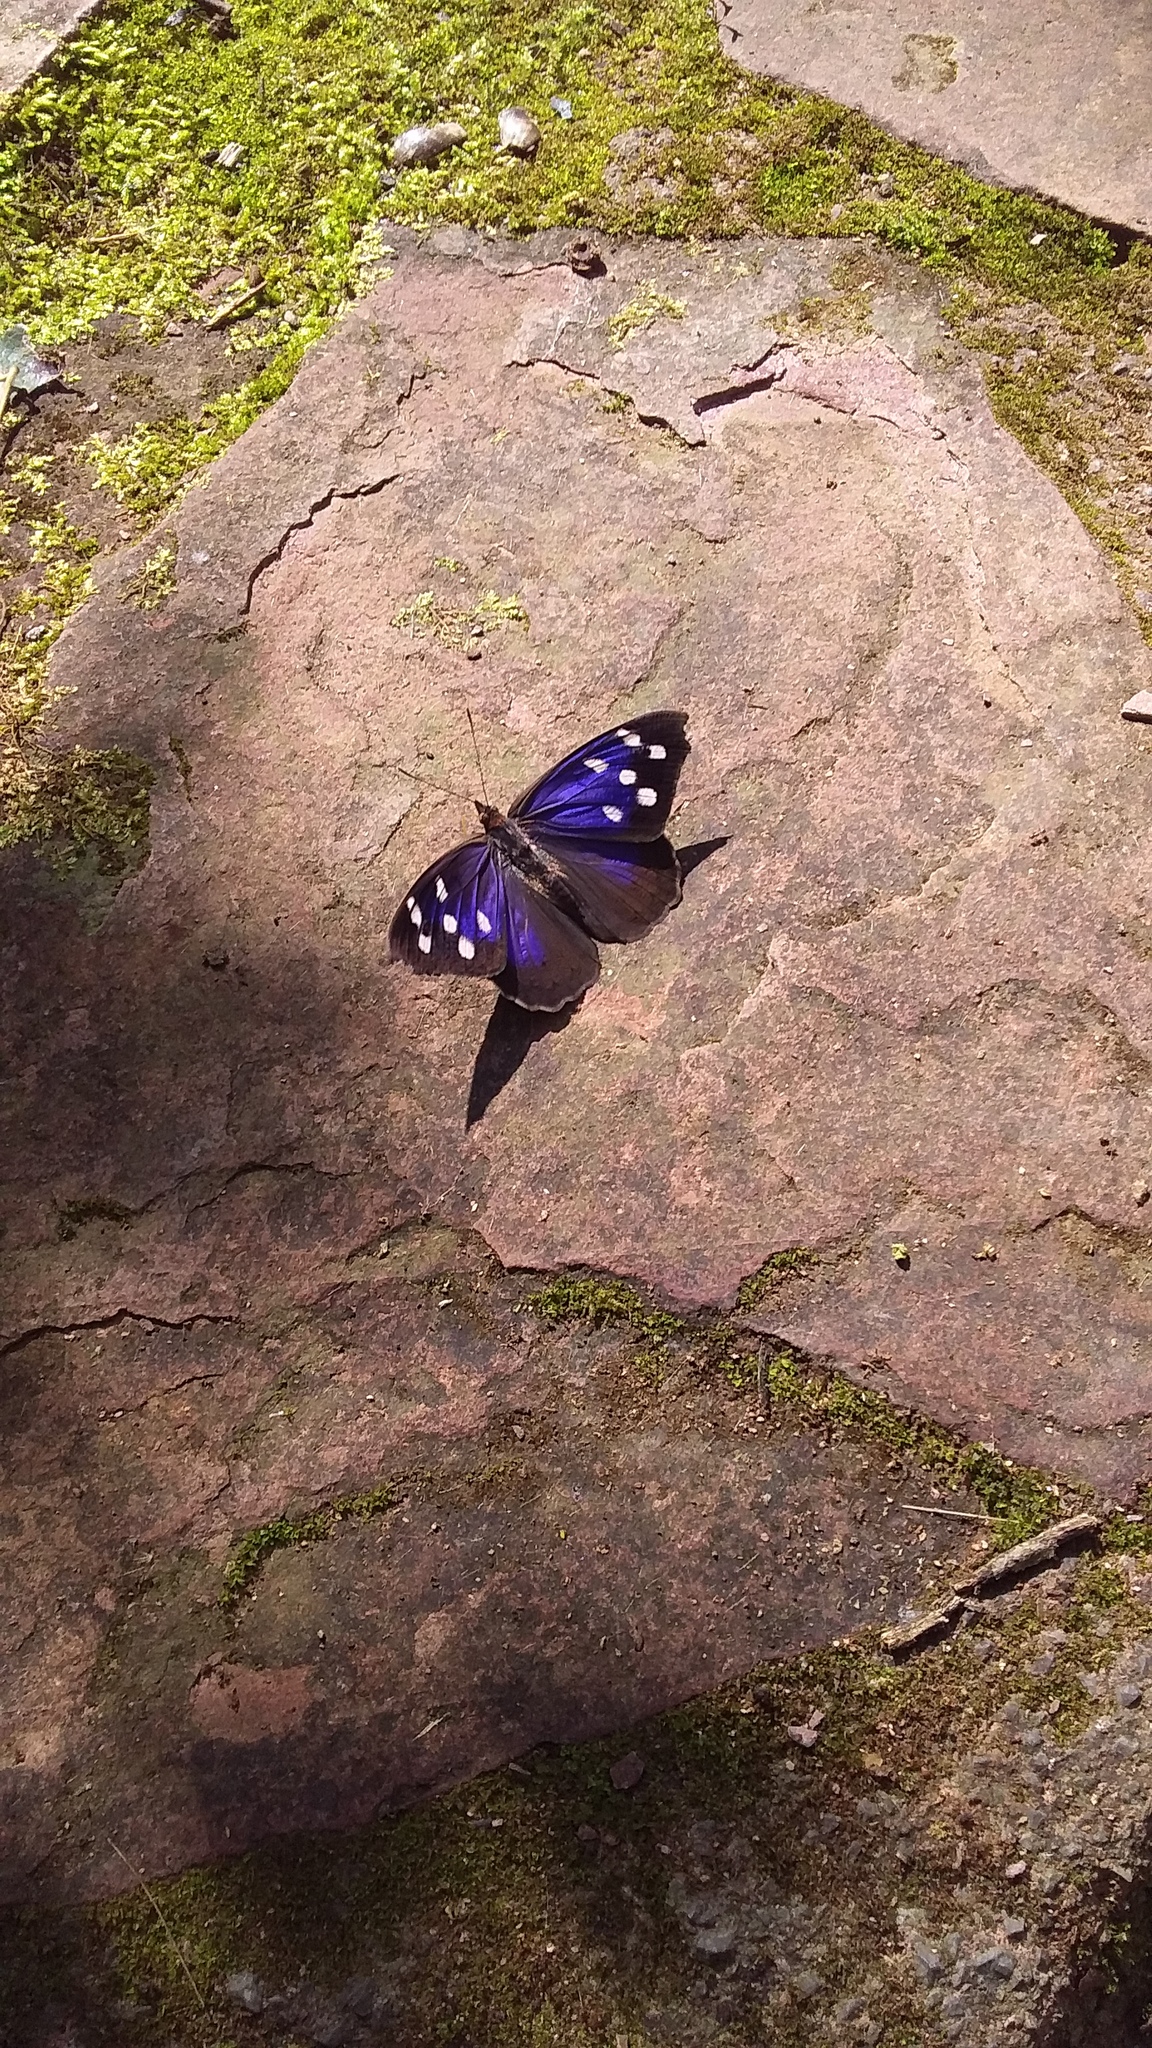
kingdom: Animalia
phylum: Arthropoda
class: Insecta
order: Lepidoptera
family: Nymphalidae
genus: Eunica
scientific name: Eunica tatila
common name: Florida purplewing
